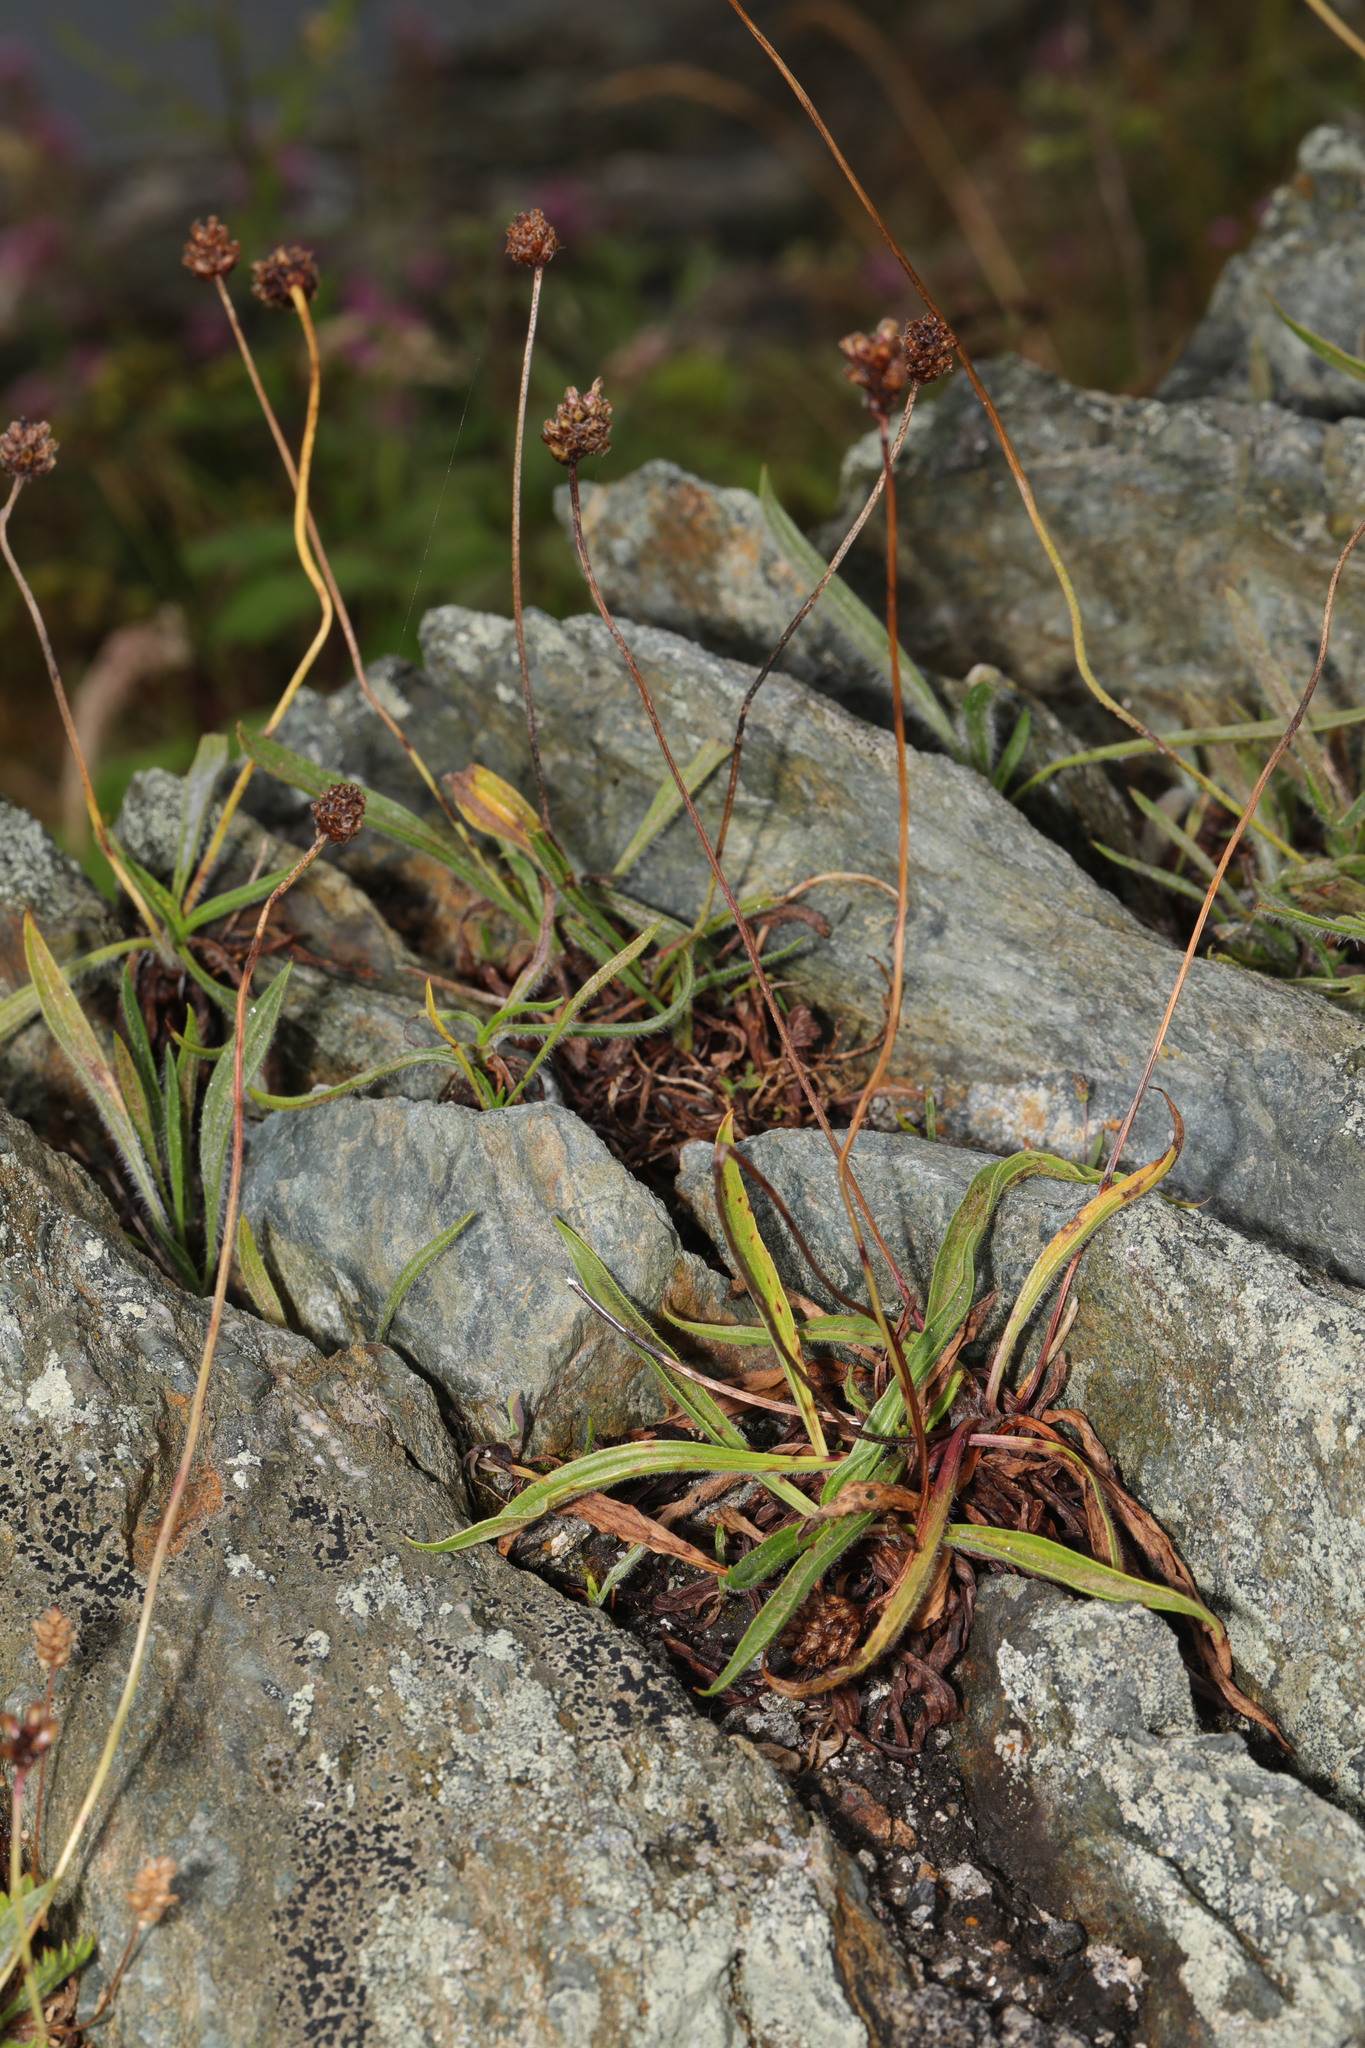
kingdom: Plantae
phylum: Tracheophyta
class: Magnoliopsida
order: Caryophyllales
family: Plumbaginaceae
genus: Armeria
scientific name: Armeria maritima
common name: Thrift
